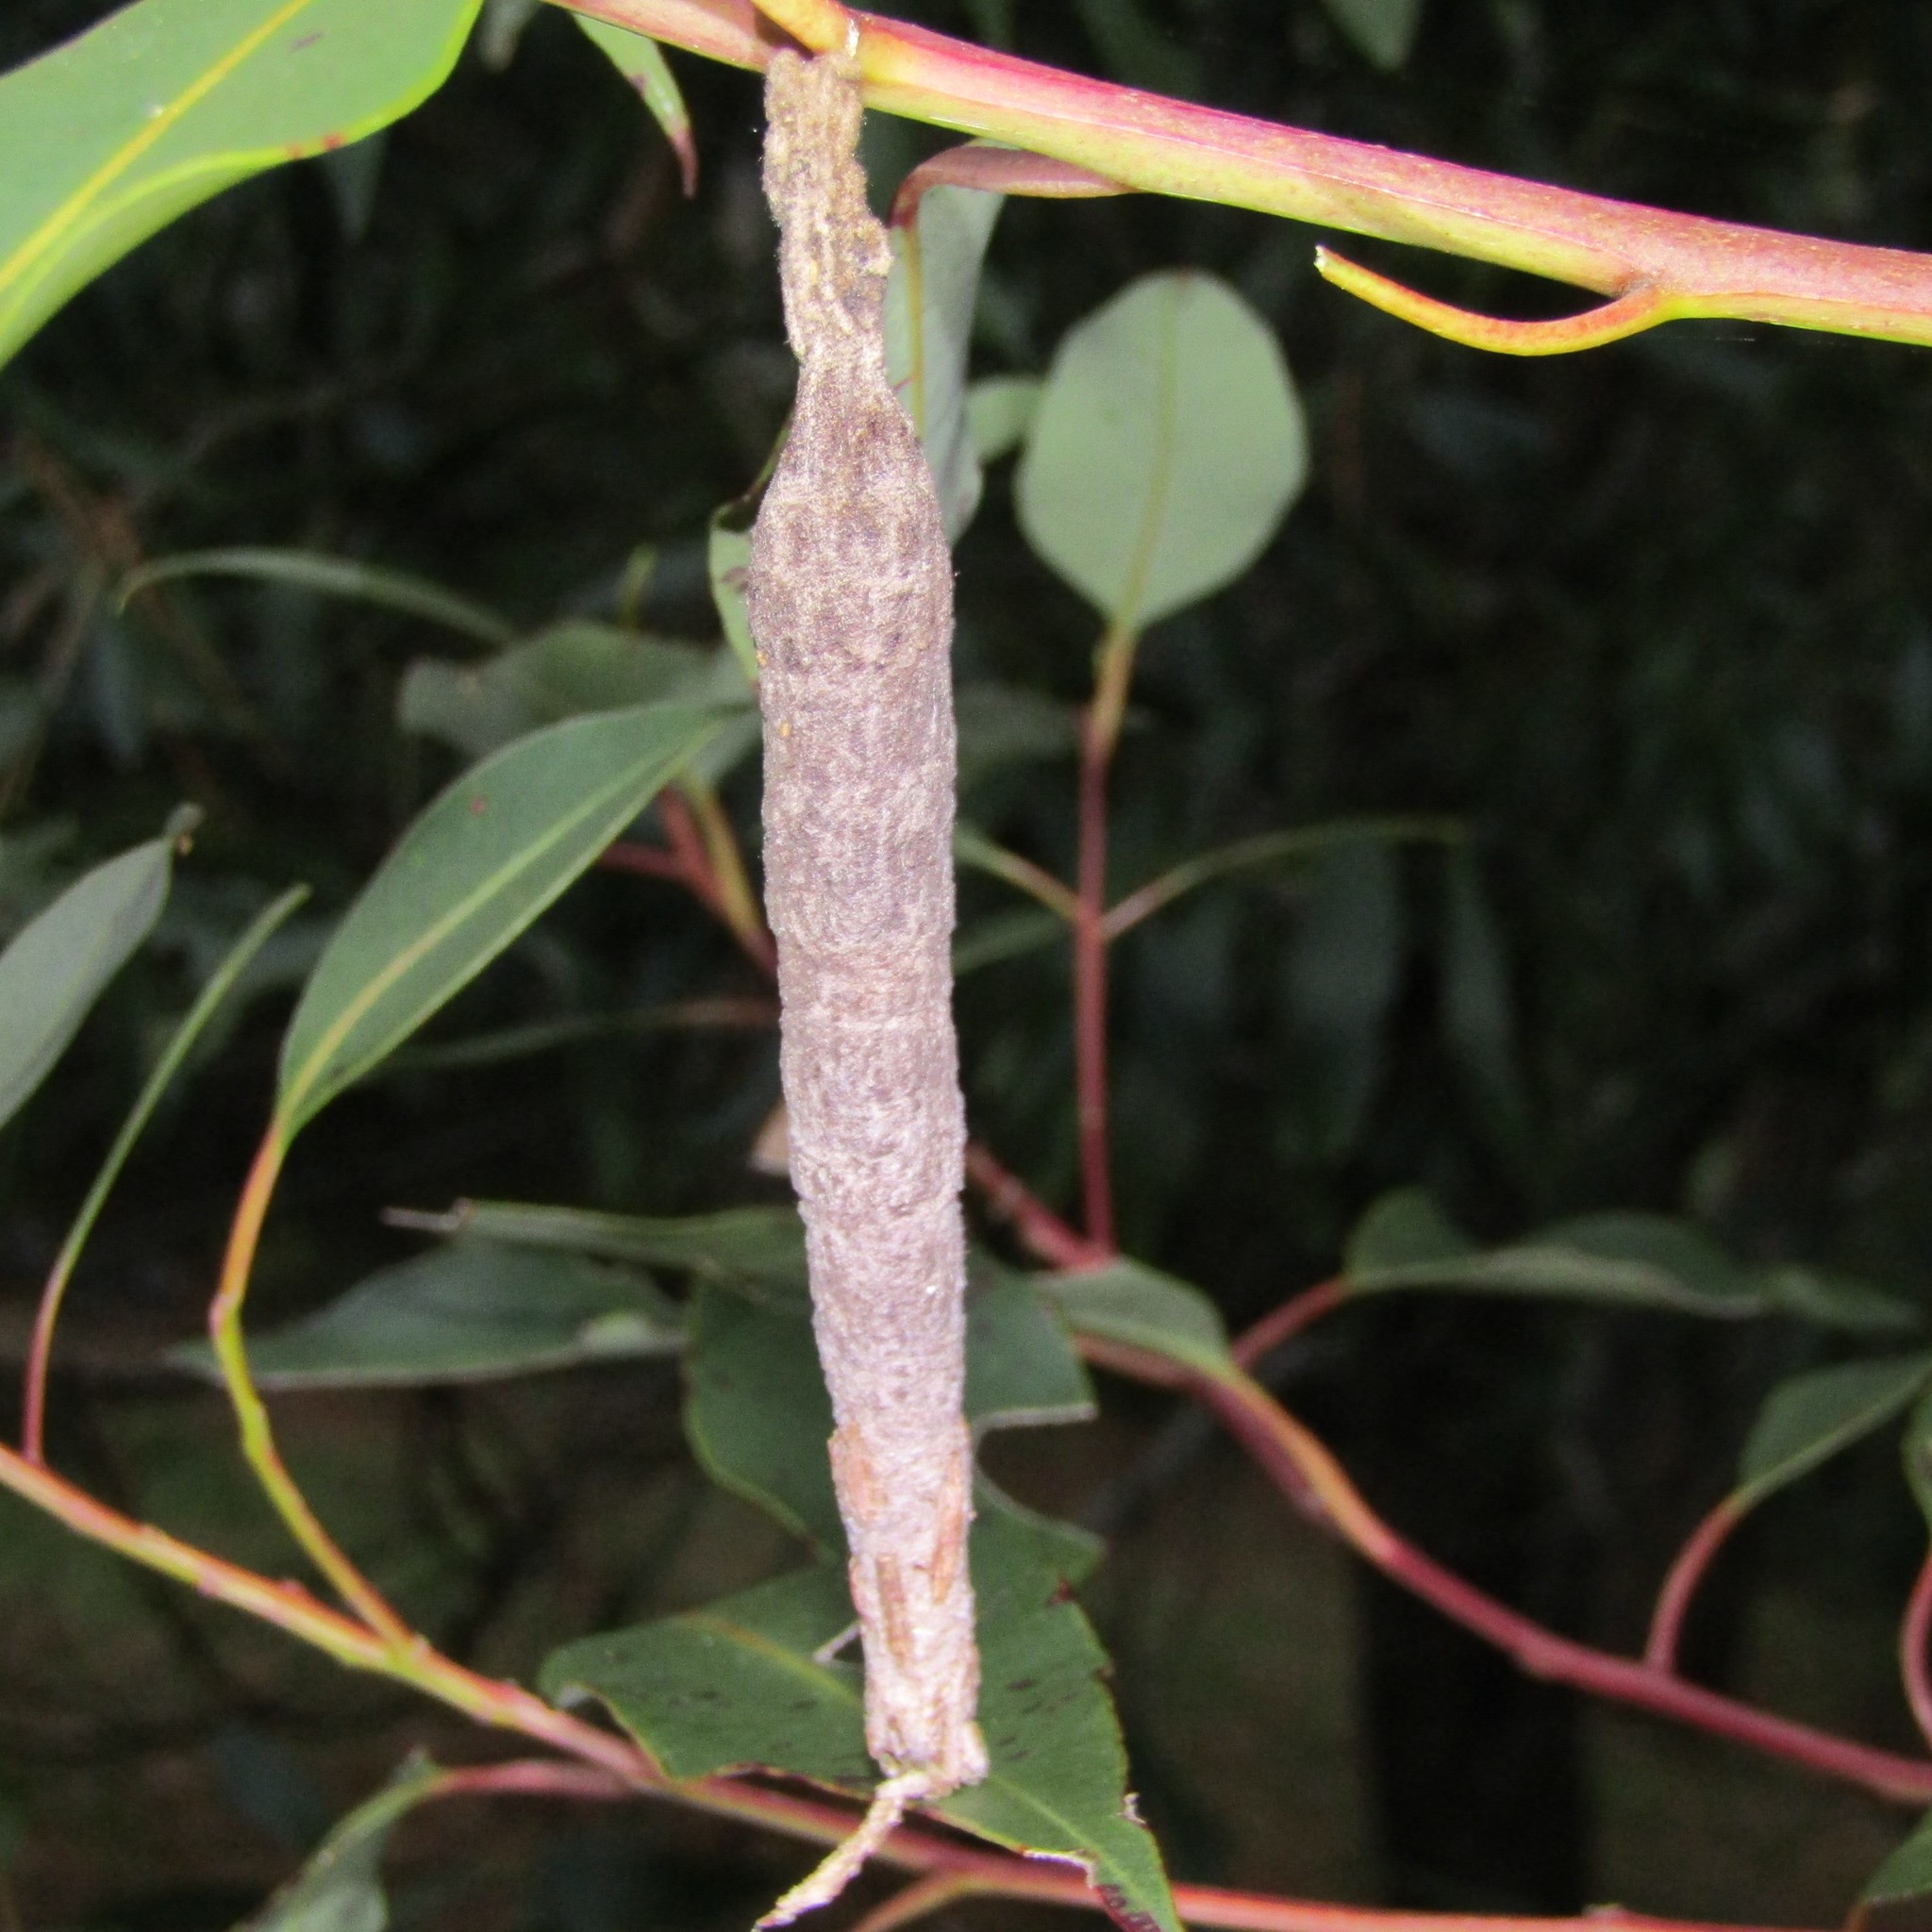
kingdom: Animalia
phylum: Arthropoda
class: Insecta
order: Lepidoptera
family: Psychidae
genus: Liothula
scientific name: Liothula omnivora
